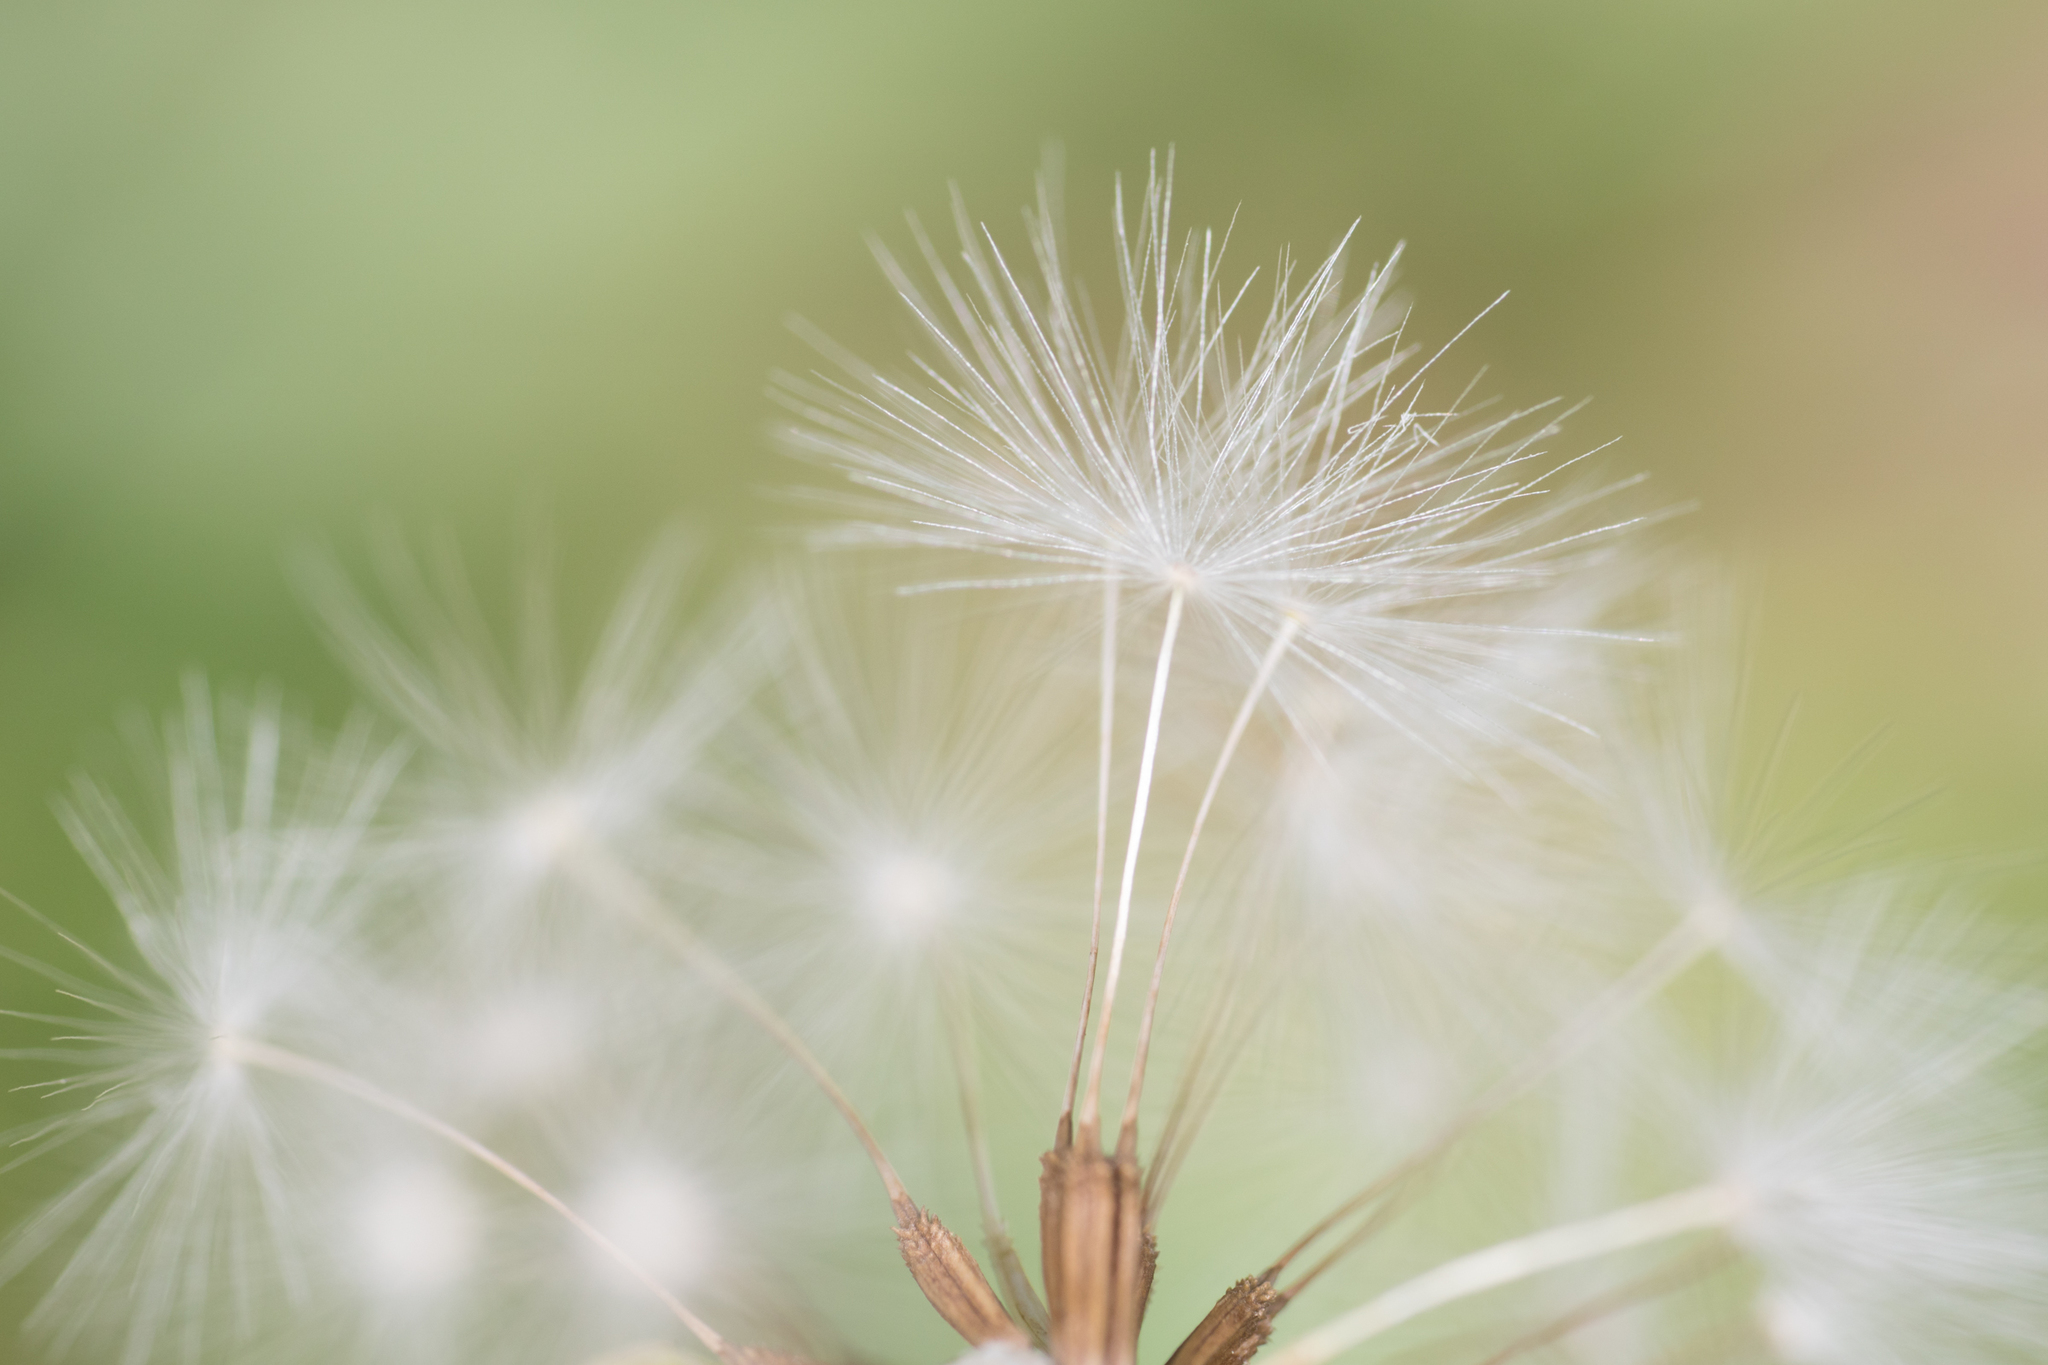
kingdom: Plantae
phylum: Tracheophyta
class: Magnoliopsida
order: Asterales
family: Asteraceae
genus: Taraxacum
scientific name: Taraxacum officinale
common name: Common dandelion
